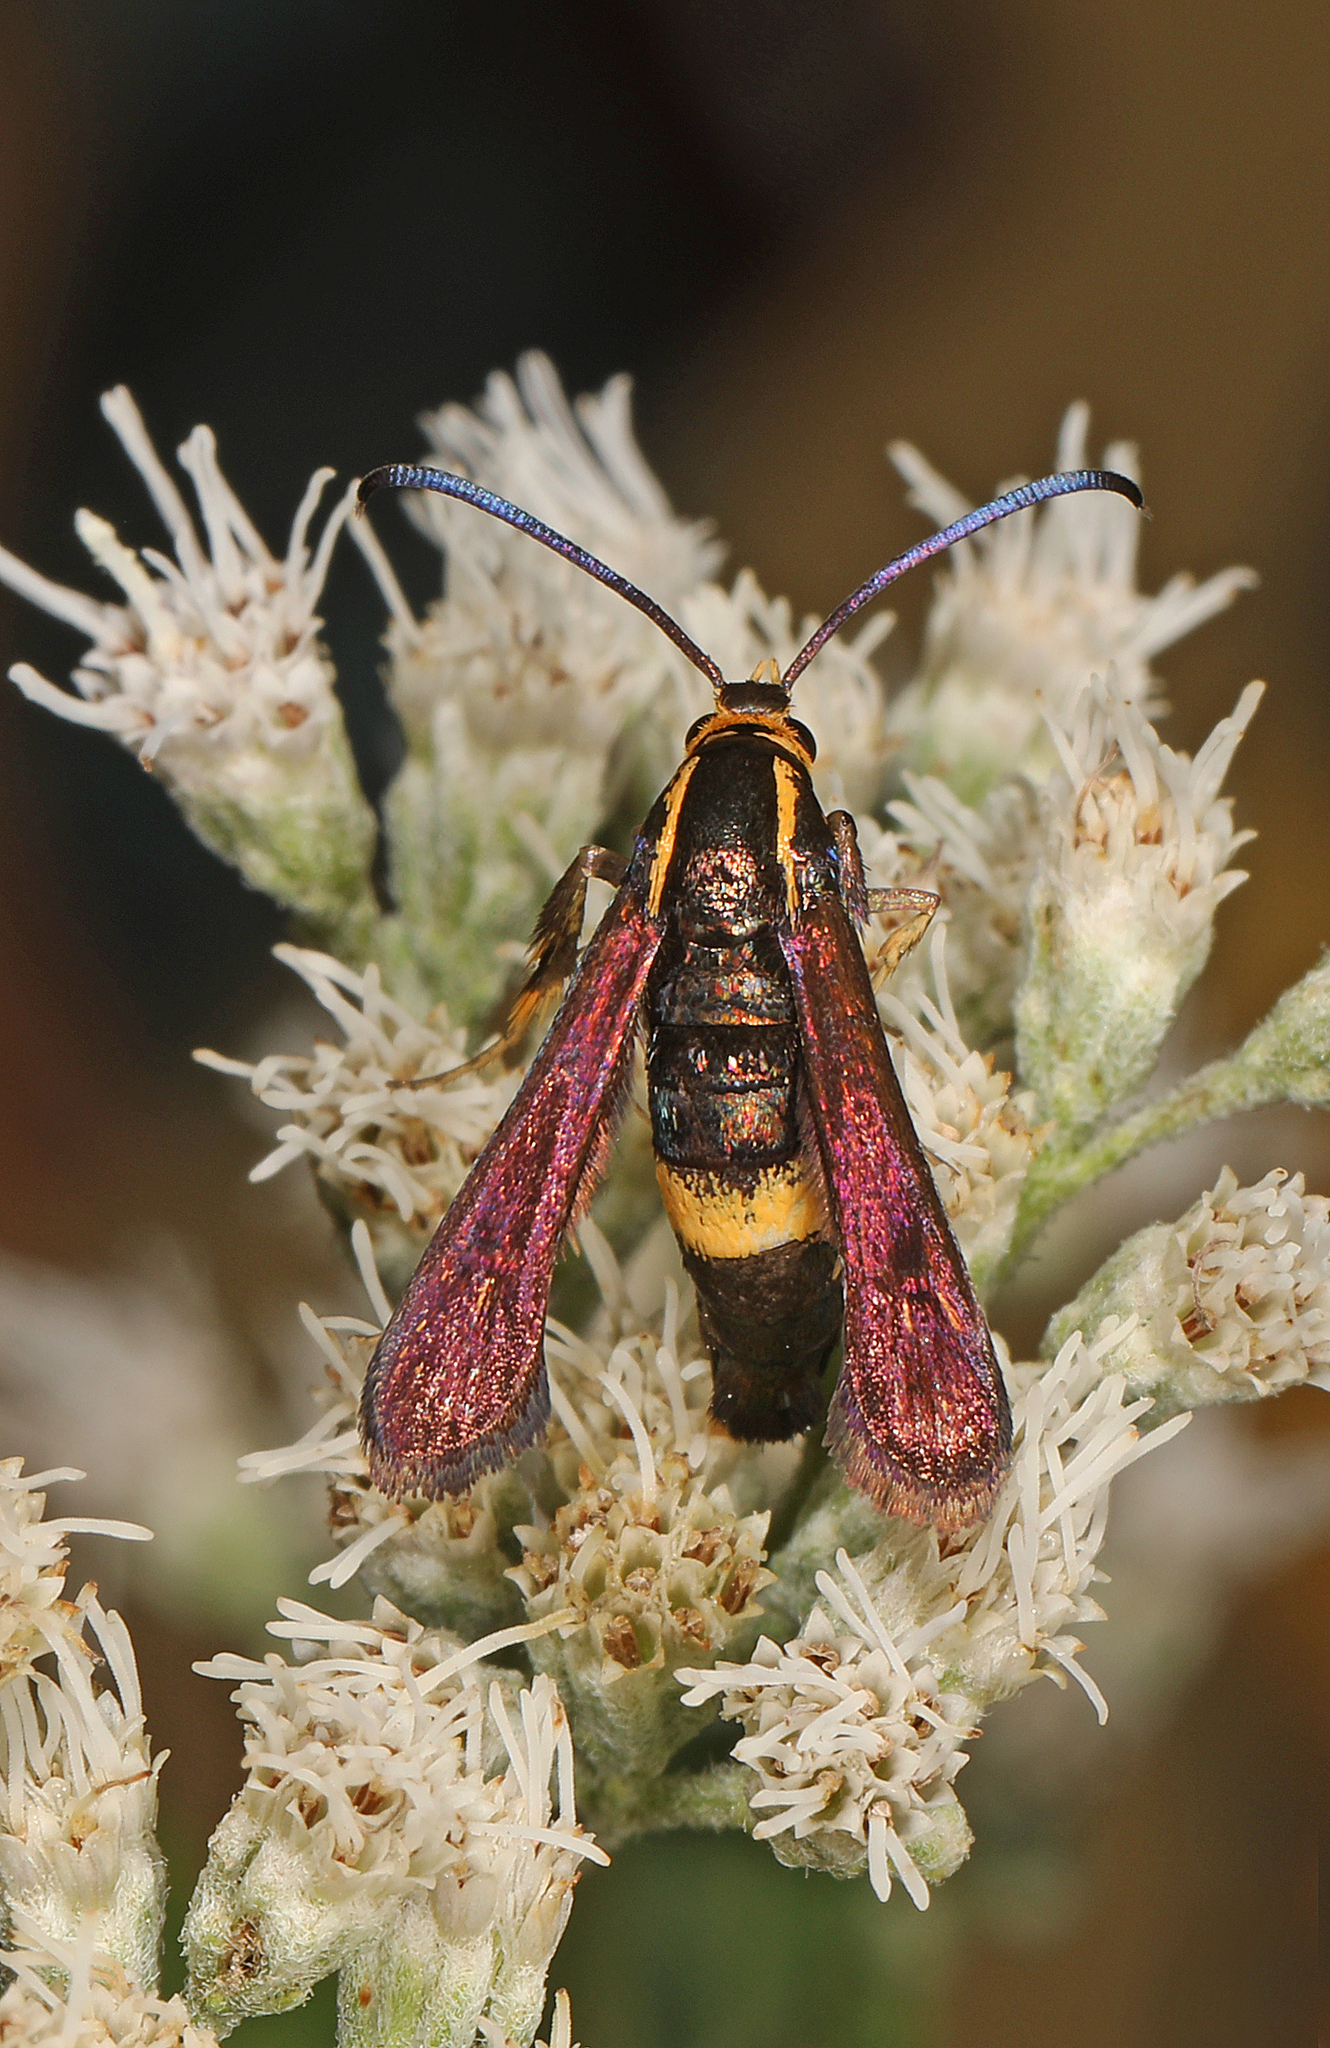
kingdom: Animalia
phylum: Arthropoda
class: Insecta
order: Lepidoptera
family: Sesiidae
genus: Carmenta
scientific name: Carmenta pyralidiformis
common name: Boneset borer moth
